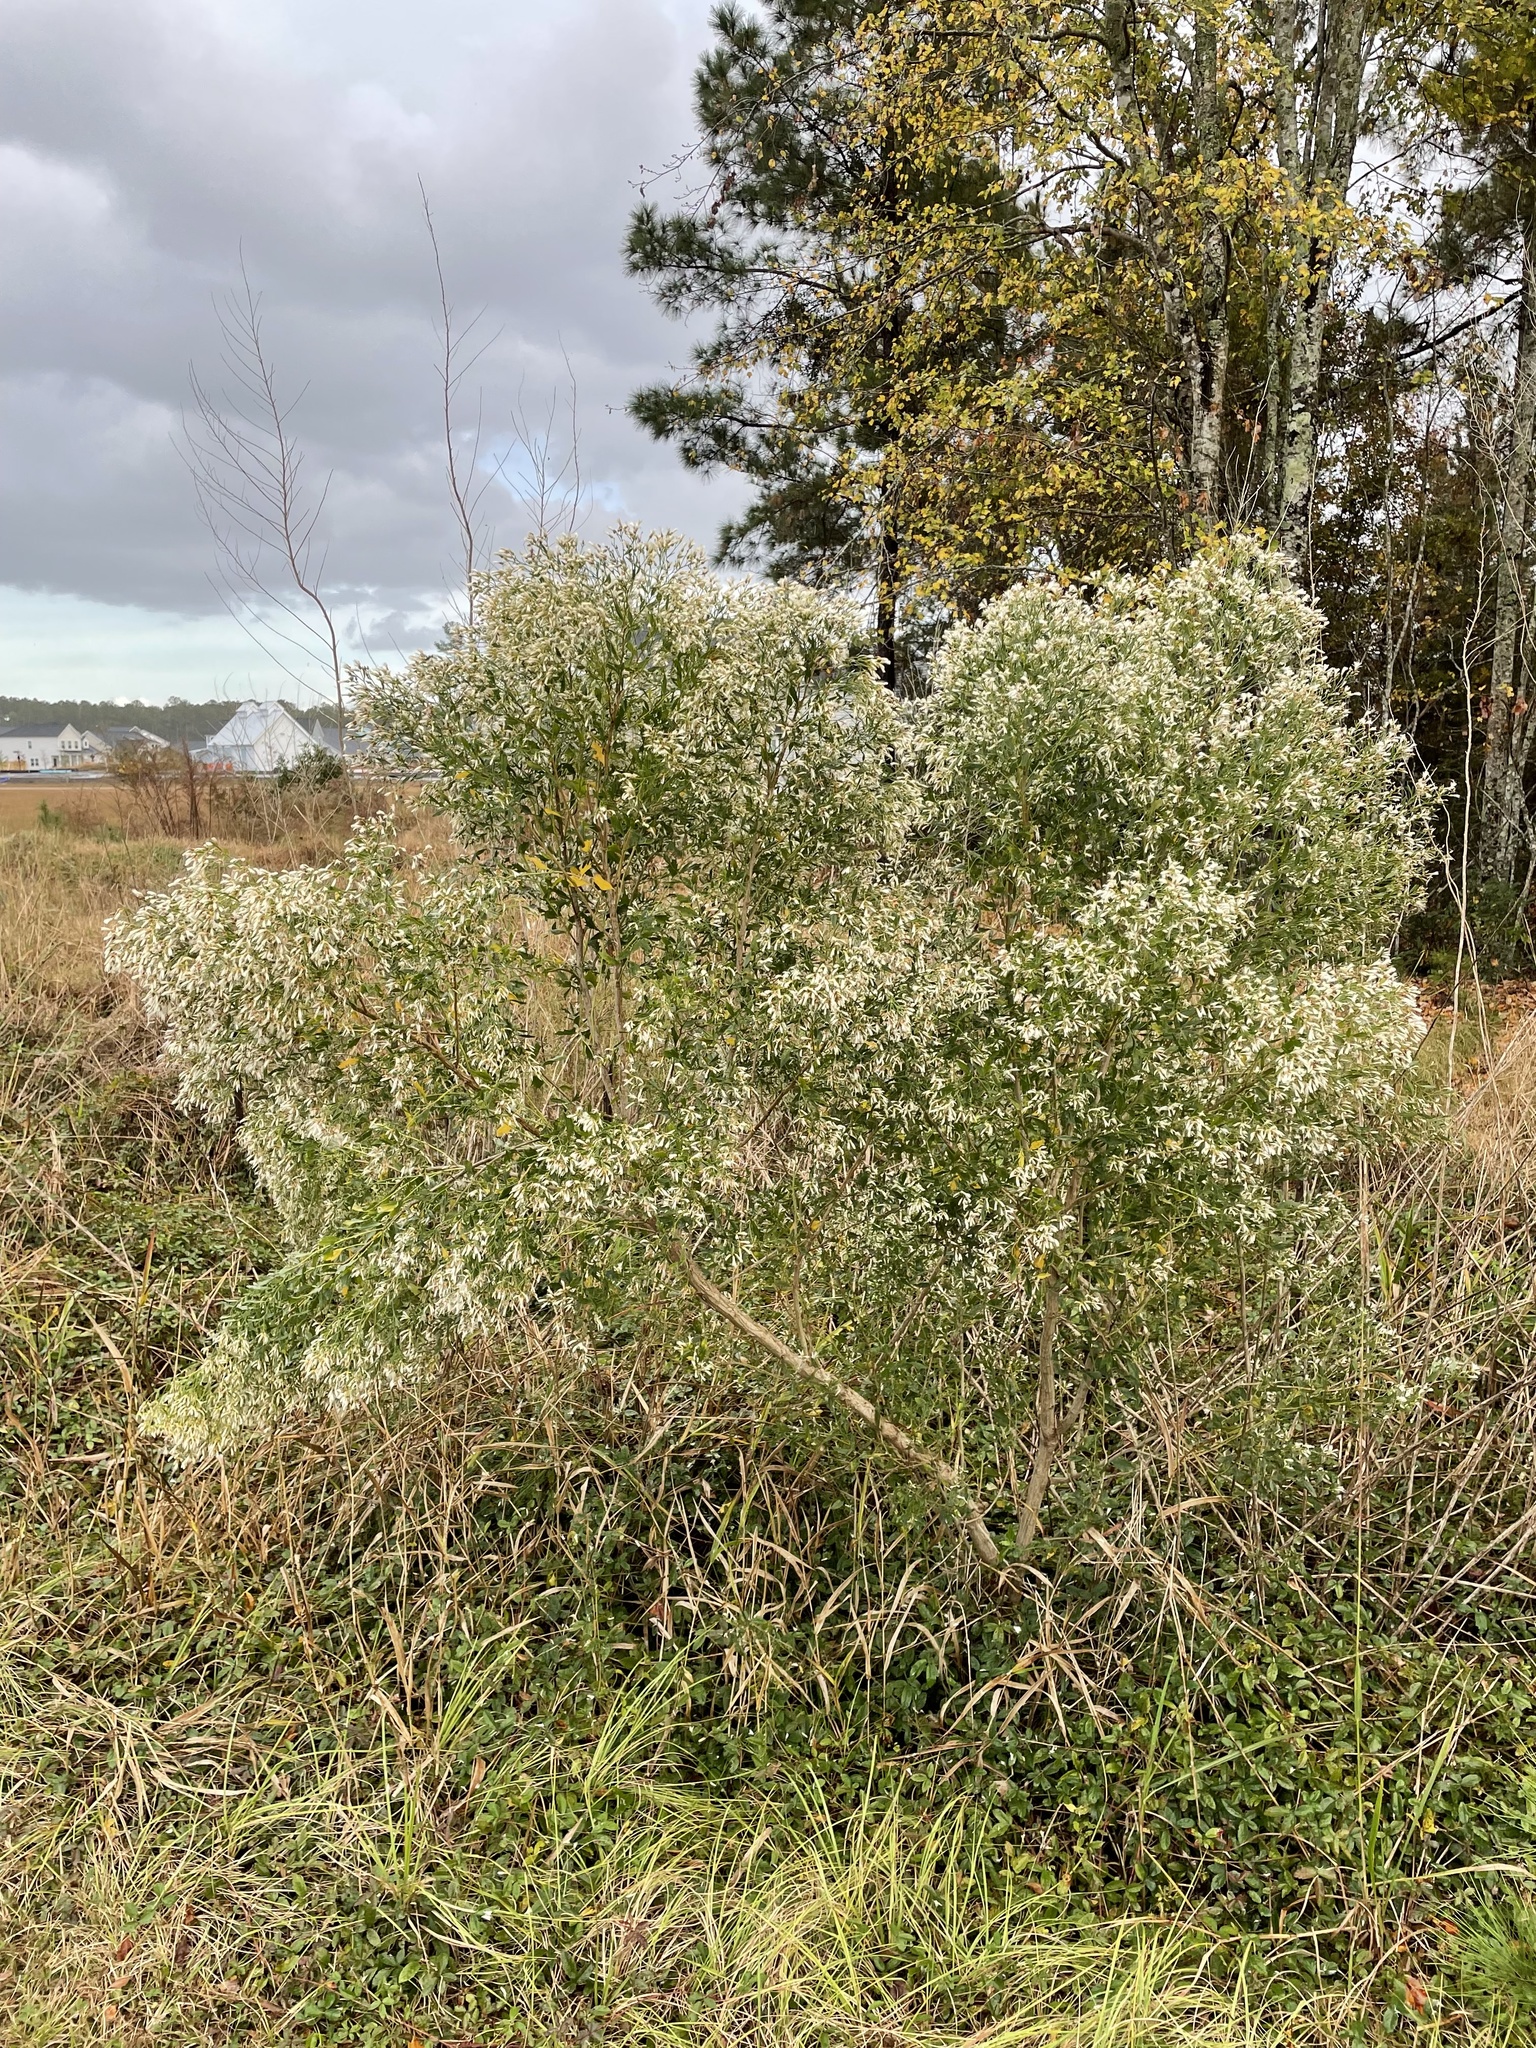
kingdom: Plantae
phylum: Tracheophyta
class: Magnoliopsida
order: Asterales
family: Asteraceae
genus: Baccharis
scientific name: Baccharis halimifolia
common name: Eastern baccharis
